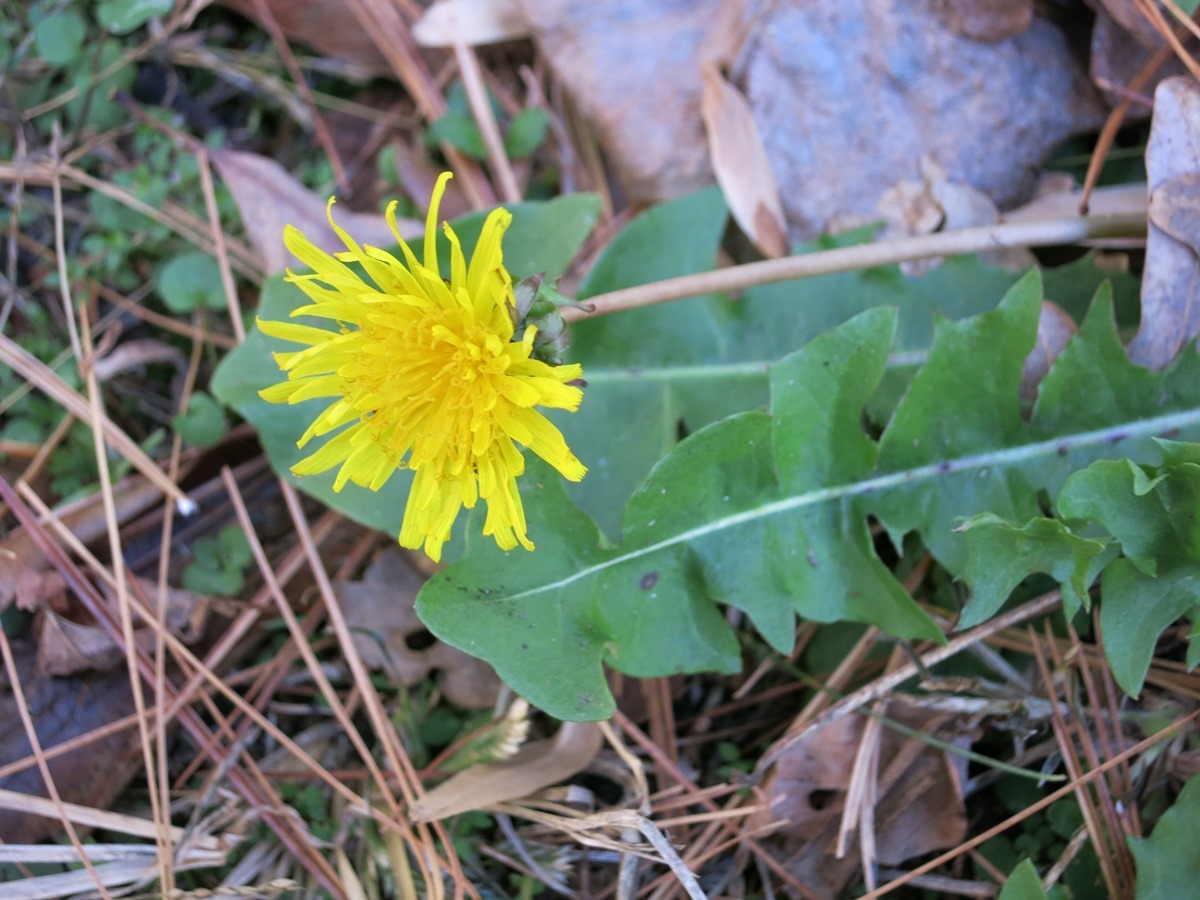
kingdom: Plantae
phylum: Tracheophyta
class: Magnoliopsida
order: Asterales
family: Asteraceae
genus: Taraxacum
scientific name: Taraxacum officinale
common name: Common dandelion
